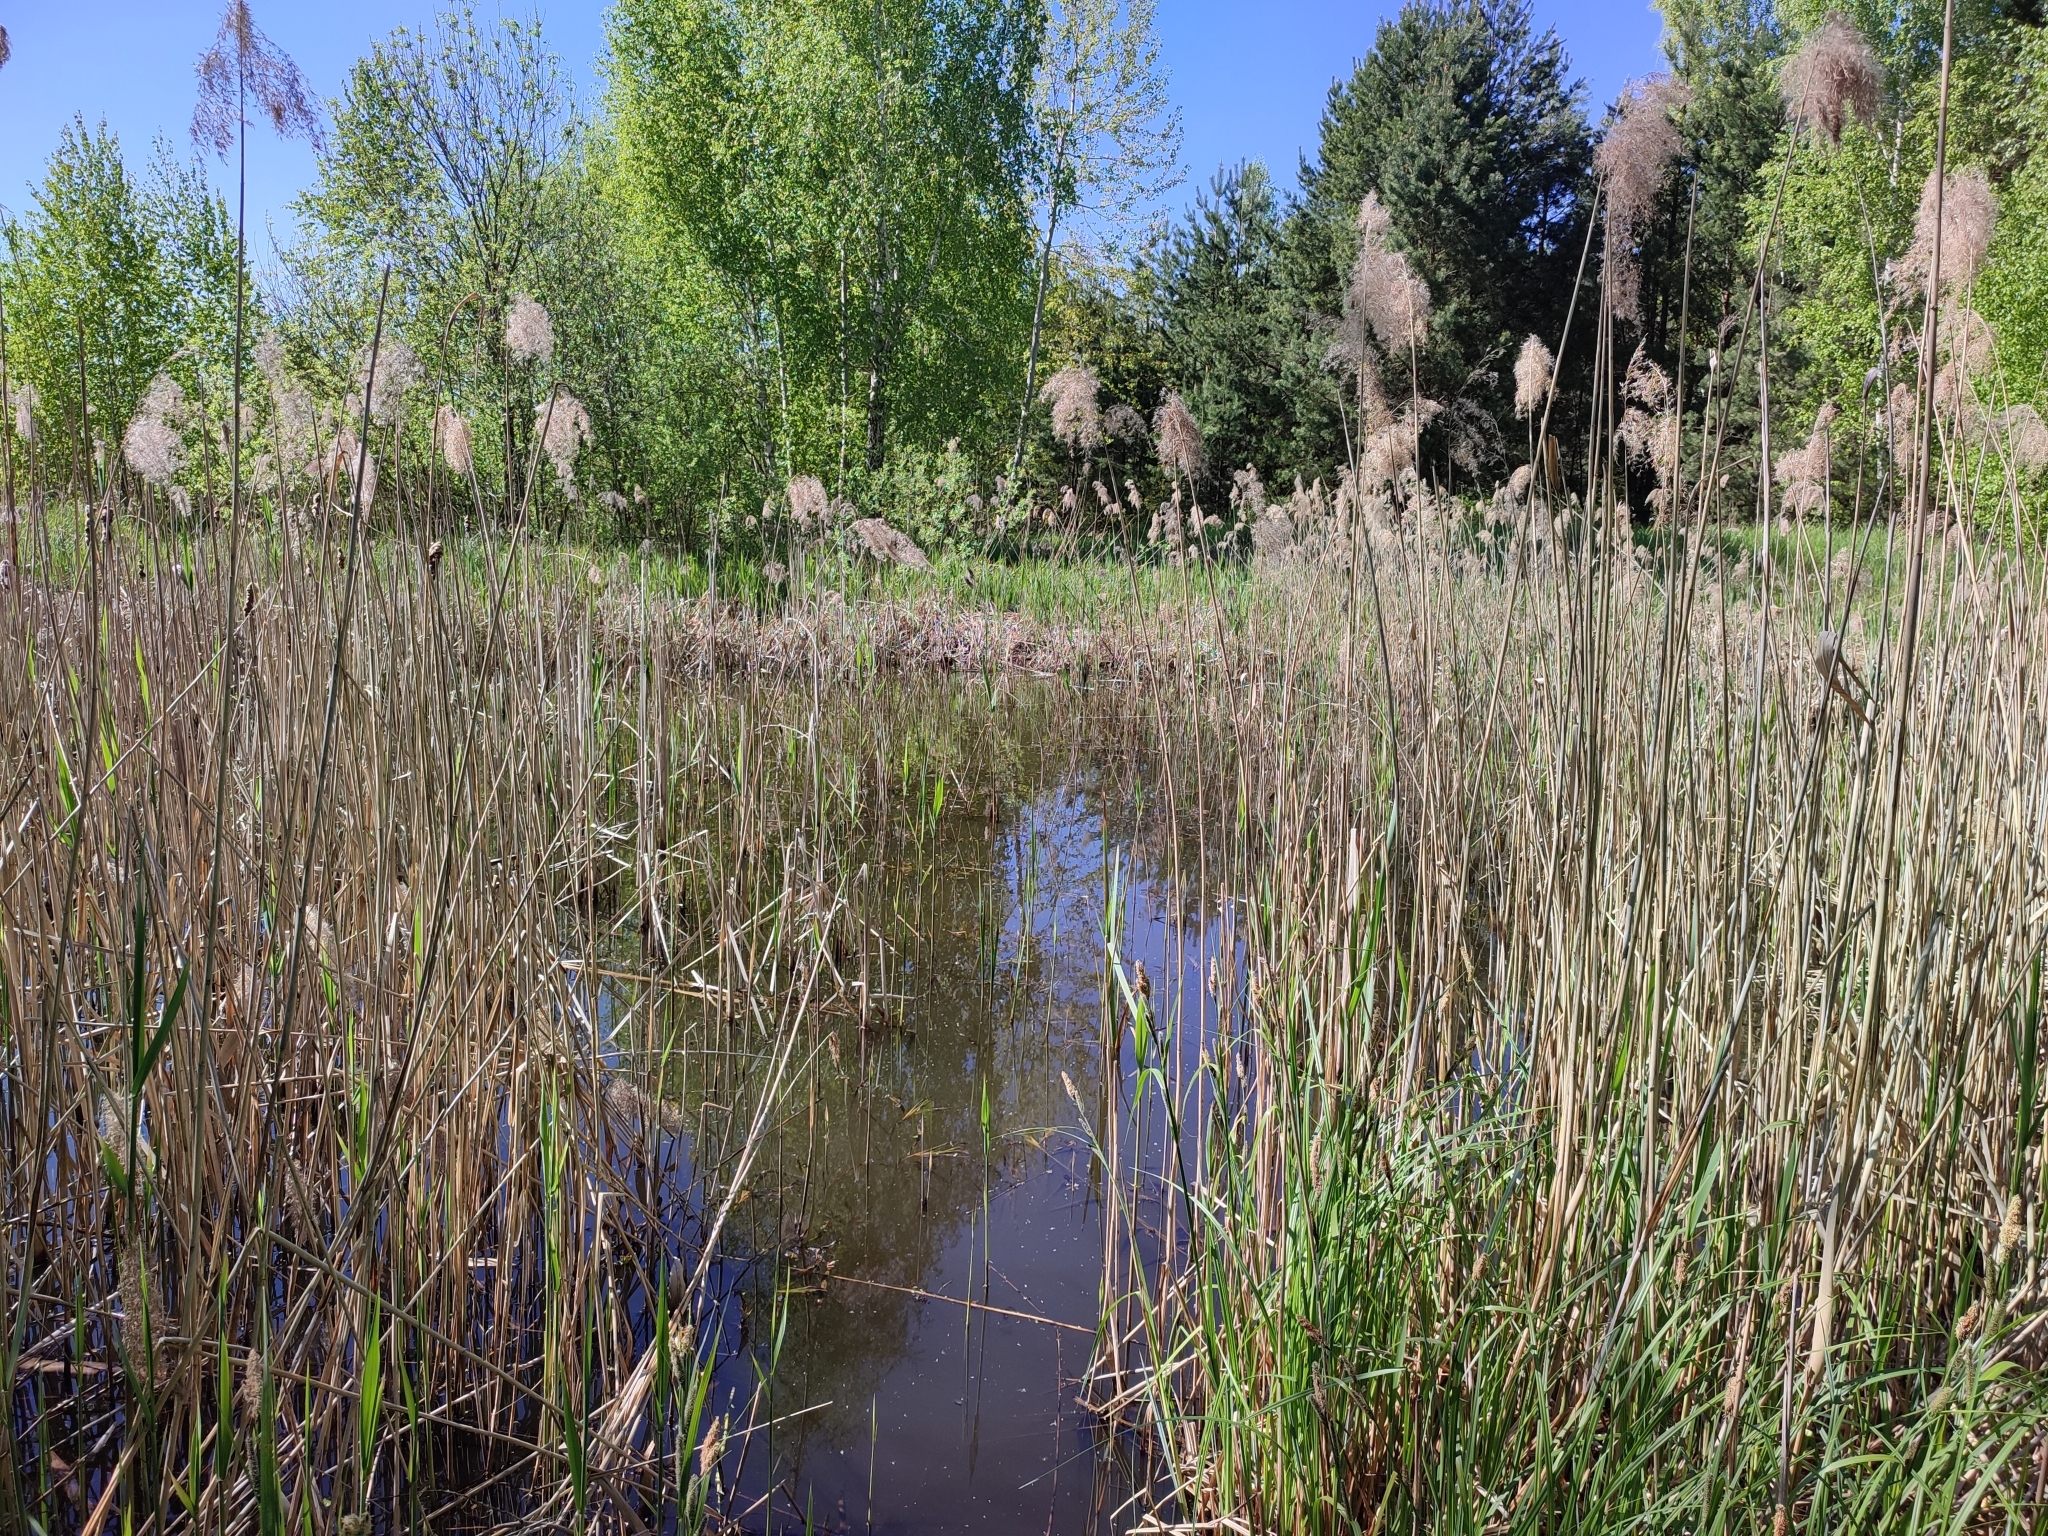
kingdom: Plantae
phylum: Tracheophyta
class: Liliopsida
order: Poales
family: Poaceae
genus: Phragmites
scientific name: Phragmites australis
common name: Common reed
